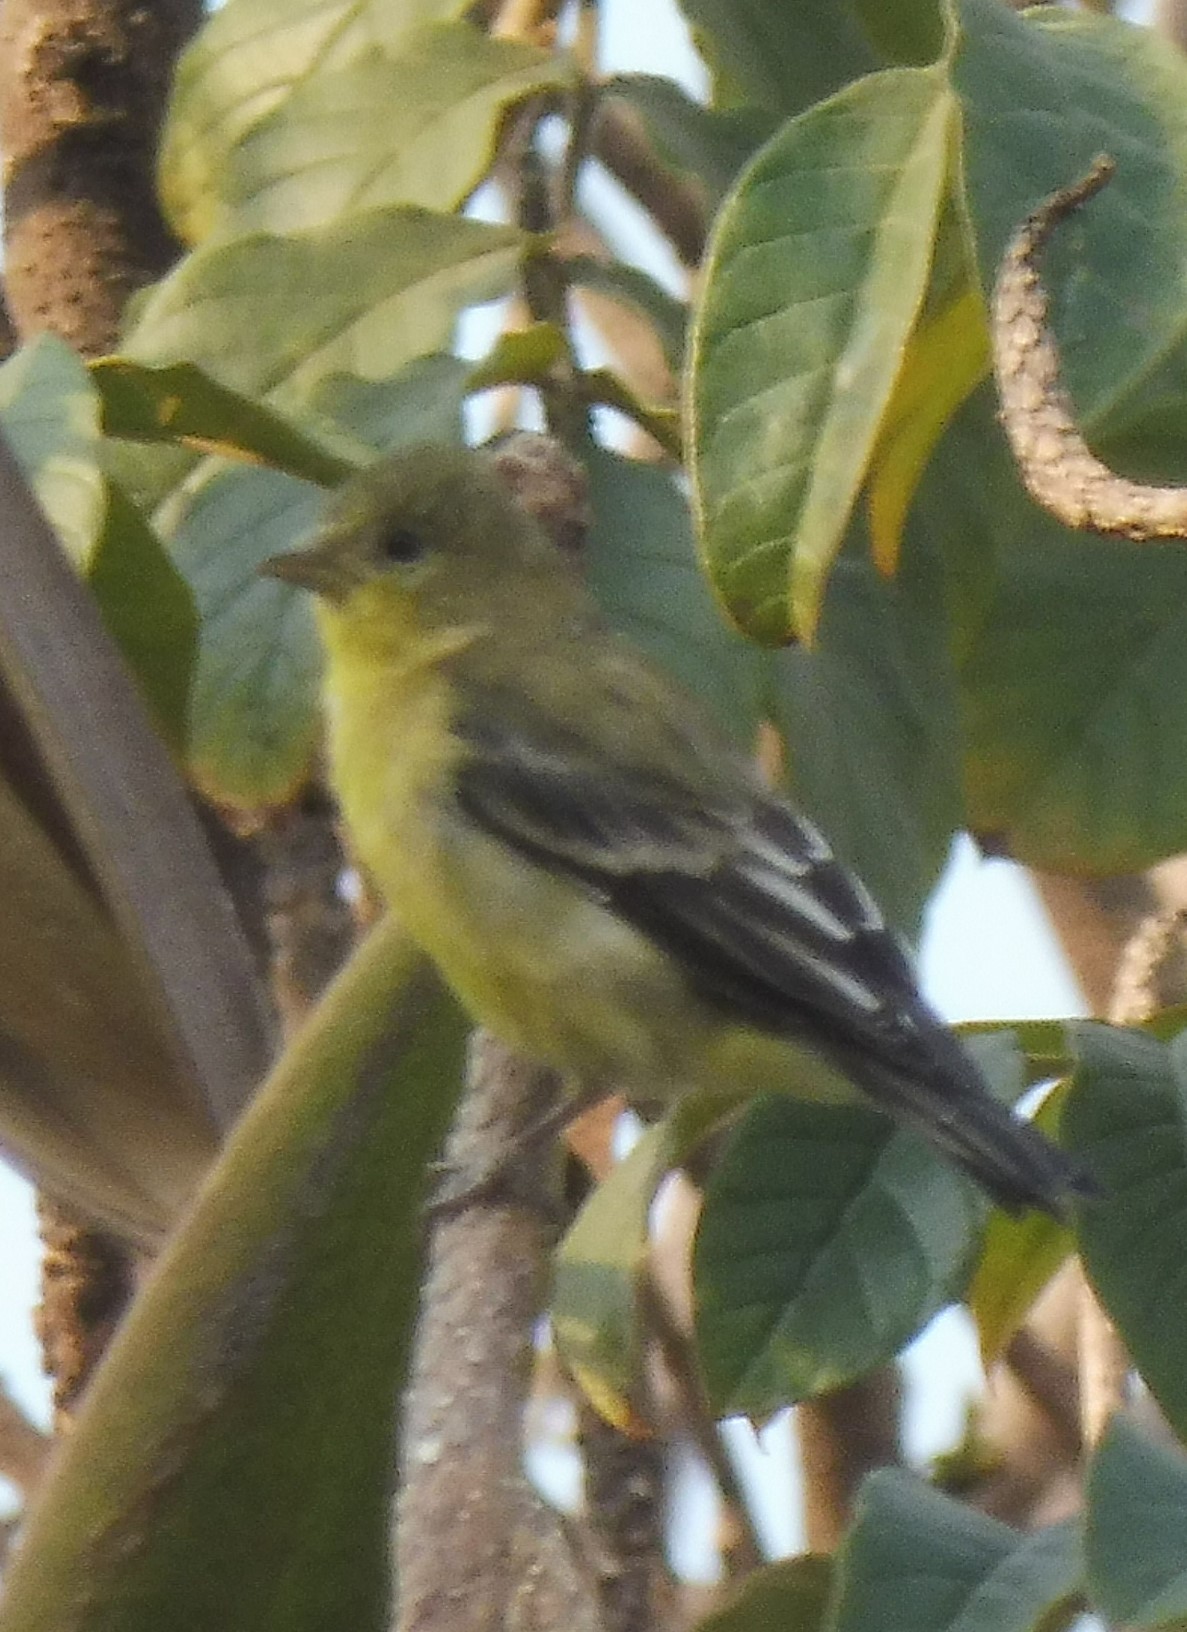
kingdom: Animalia
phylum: Chordata
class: Aves
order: Passeriformes
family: Fringillidae
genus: Spinus
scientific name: Spinus psaltria
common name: Lesser goldfinch
